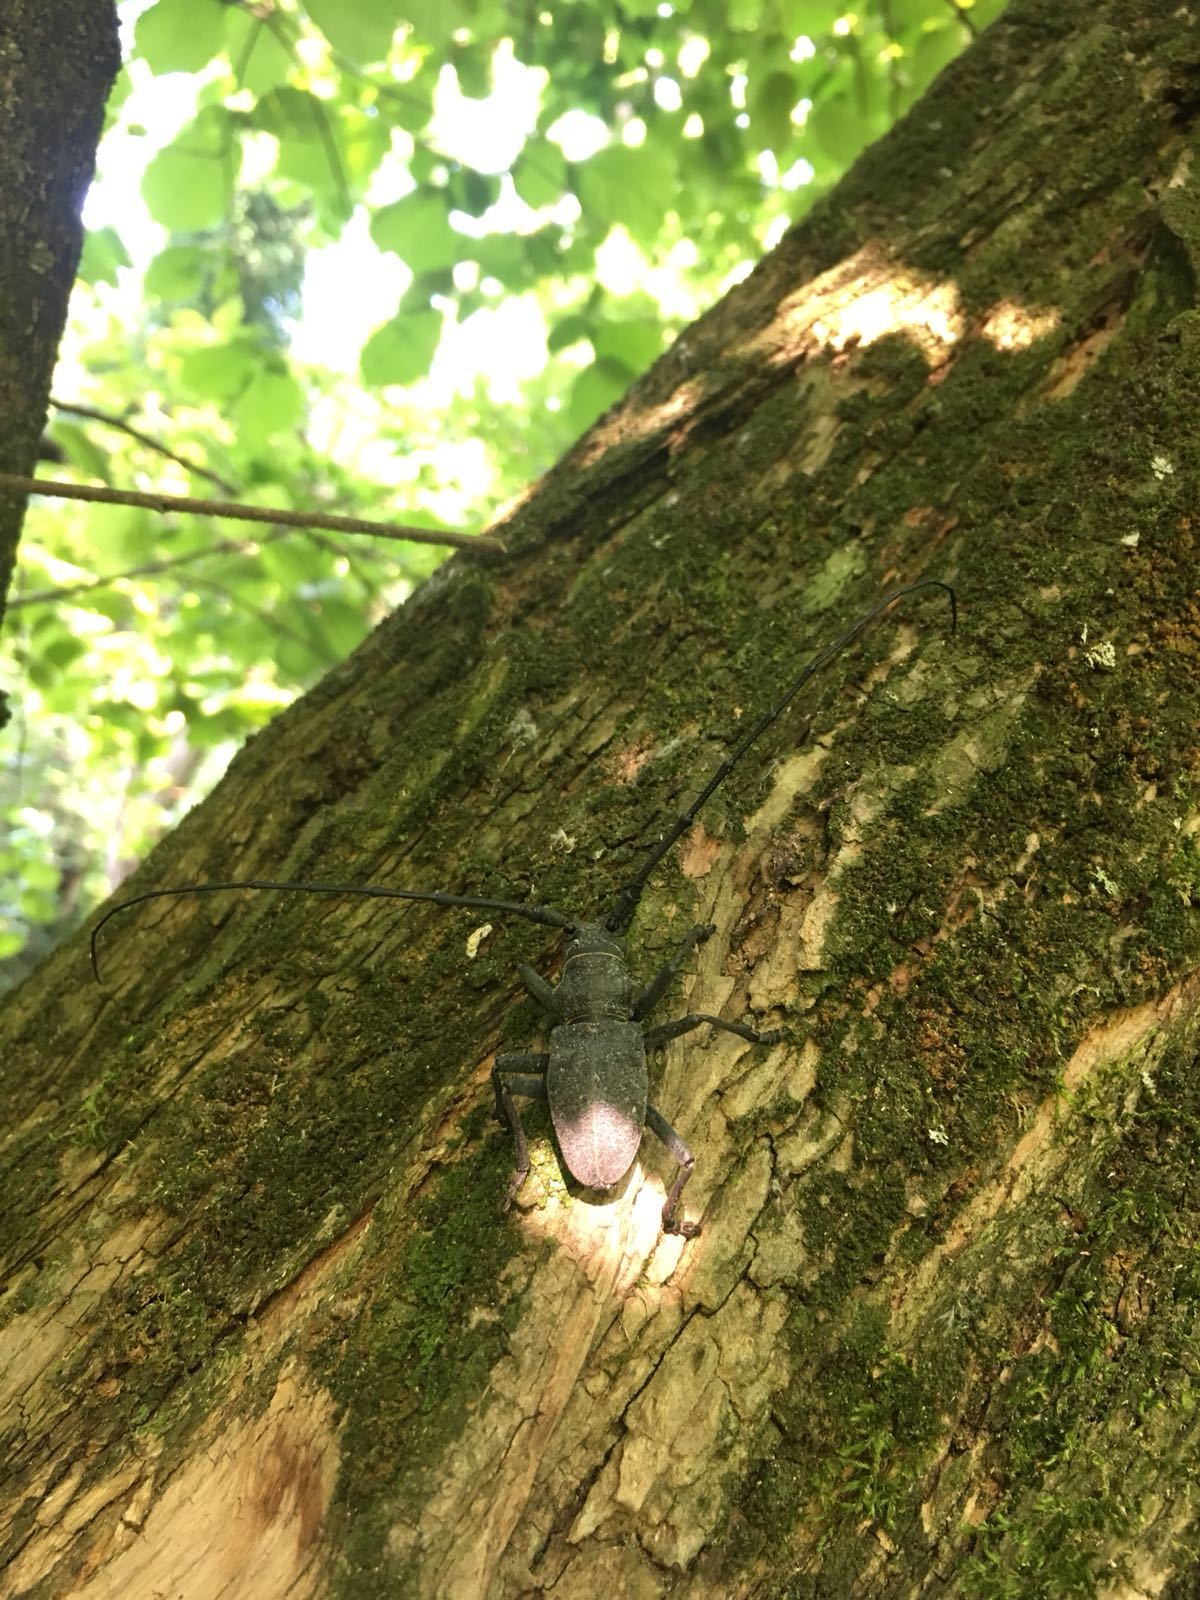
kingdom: Animalia
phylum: Arthropoda
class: Insecta
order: Coleoptera
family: Cerambycidae
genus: Morimus
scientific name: Morimus asper
